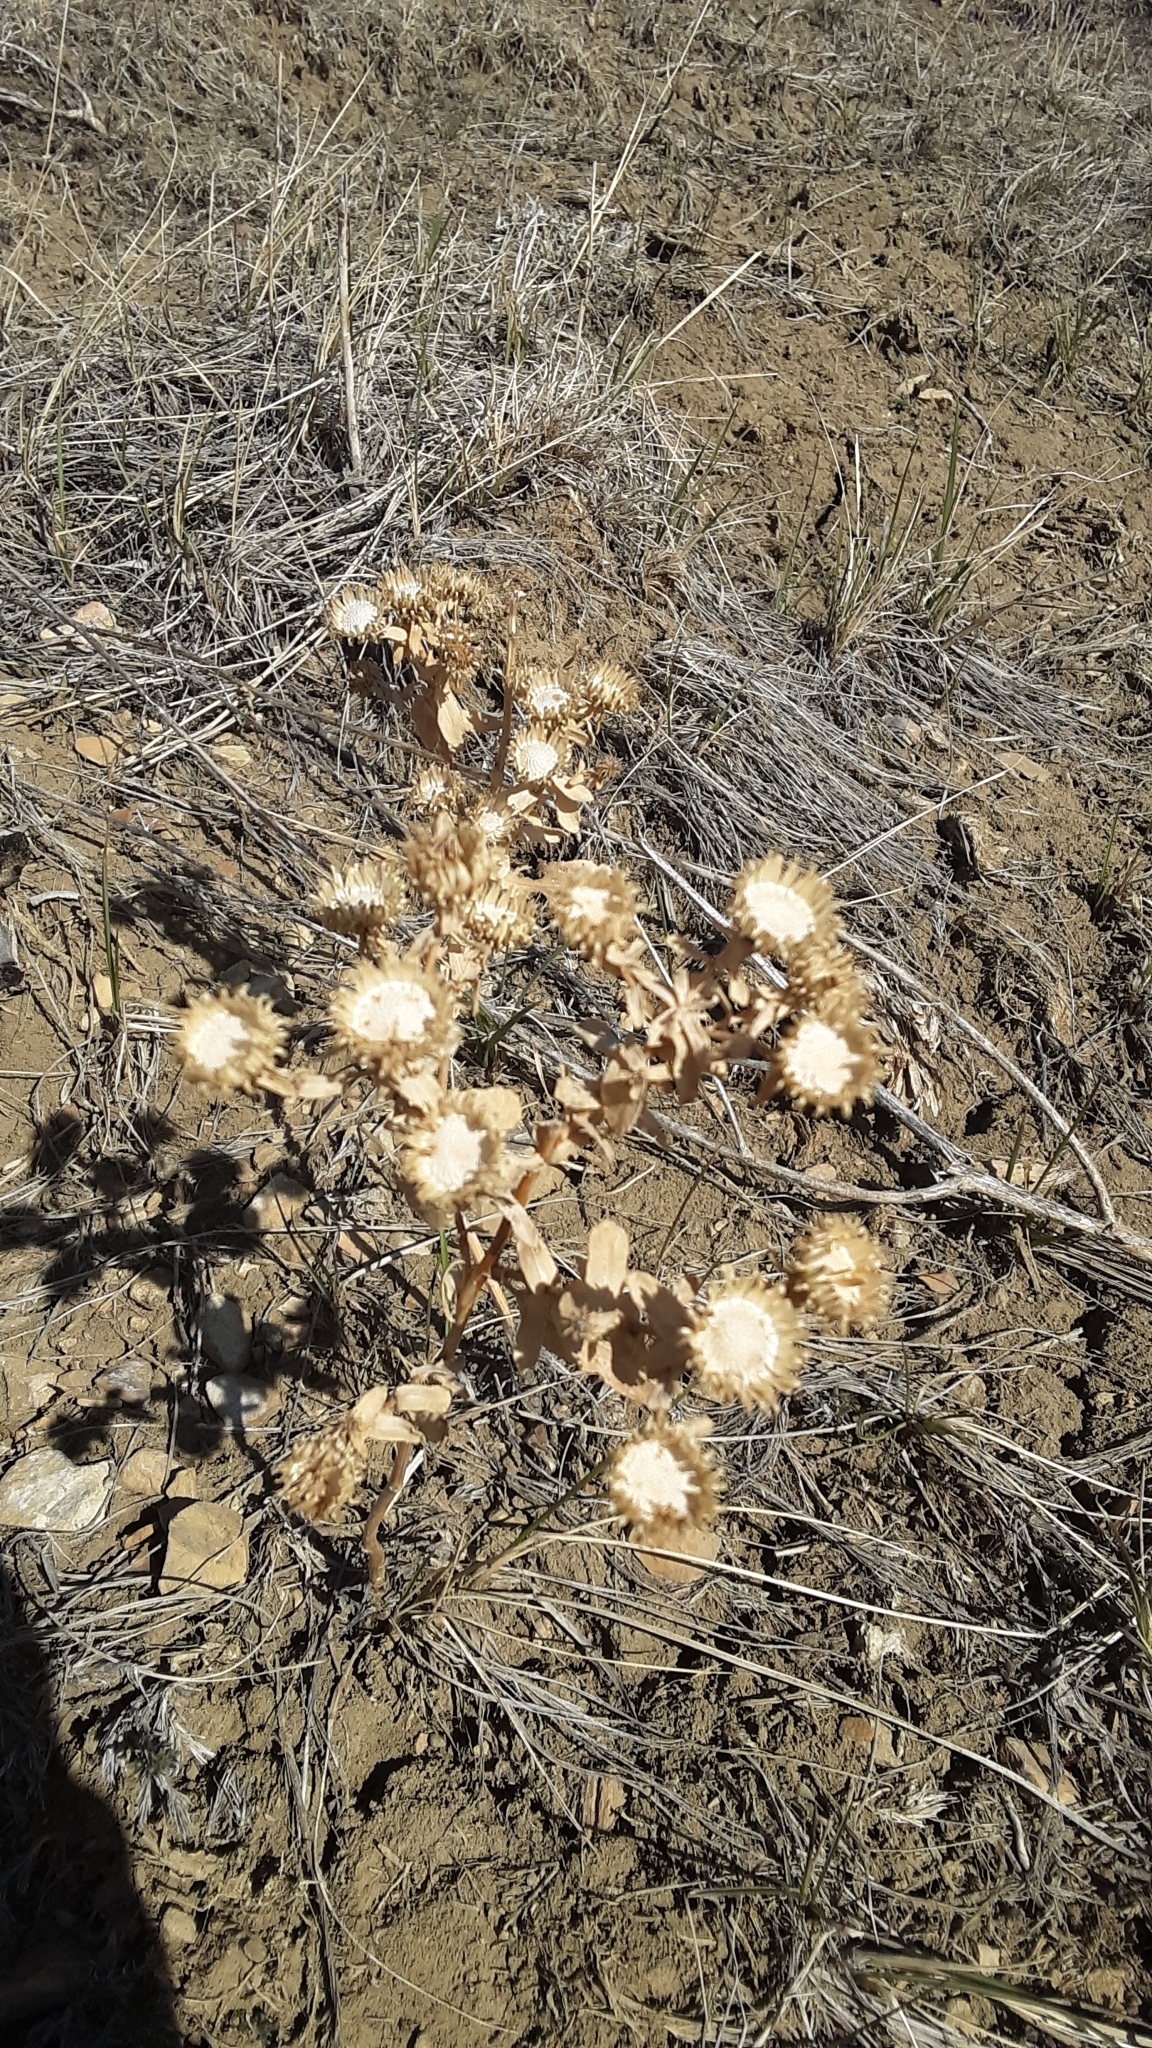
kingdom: Plantae
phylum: Tracheophyta
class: Magnoliopsida
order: Asterales
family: Asteraceae
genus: Grindelia
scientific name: Grindelia squarrosa
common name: Curly-cup gumweed
